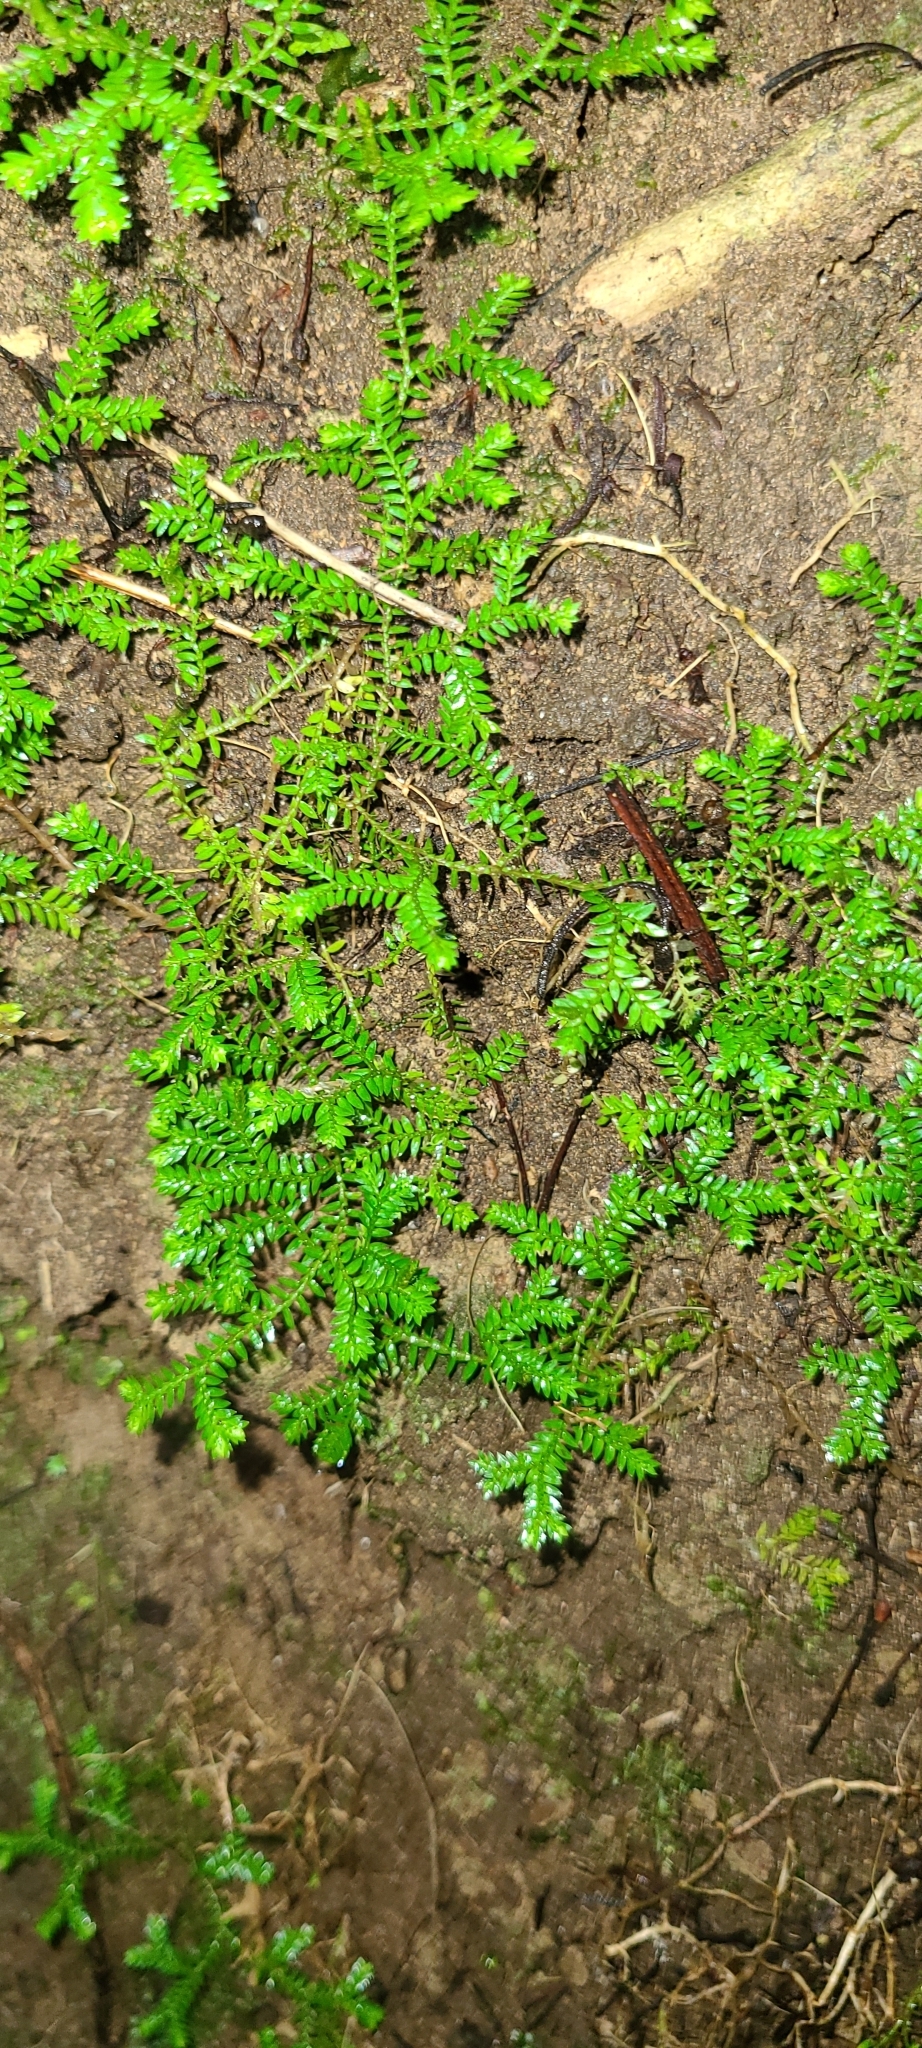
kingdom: Plantae
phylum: Tracheophyta
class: Lycopodiopsida
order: Selaginellales
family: Selaginellaceae
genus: Selaginella
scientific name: Selaginella kraussiana
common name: Krauss' spikemoss
